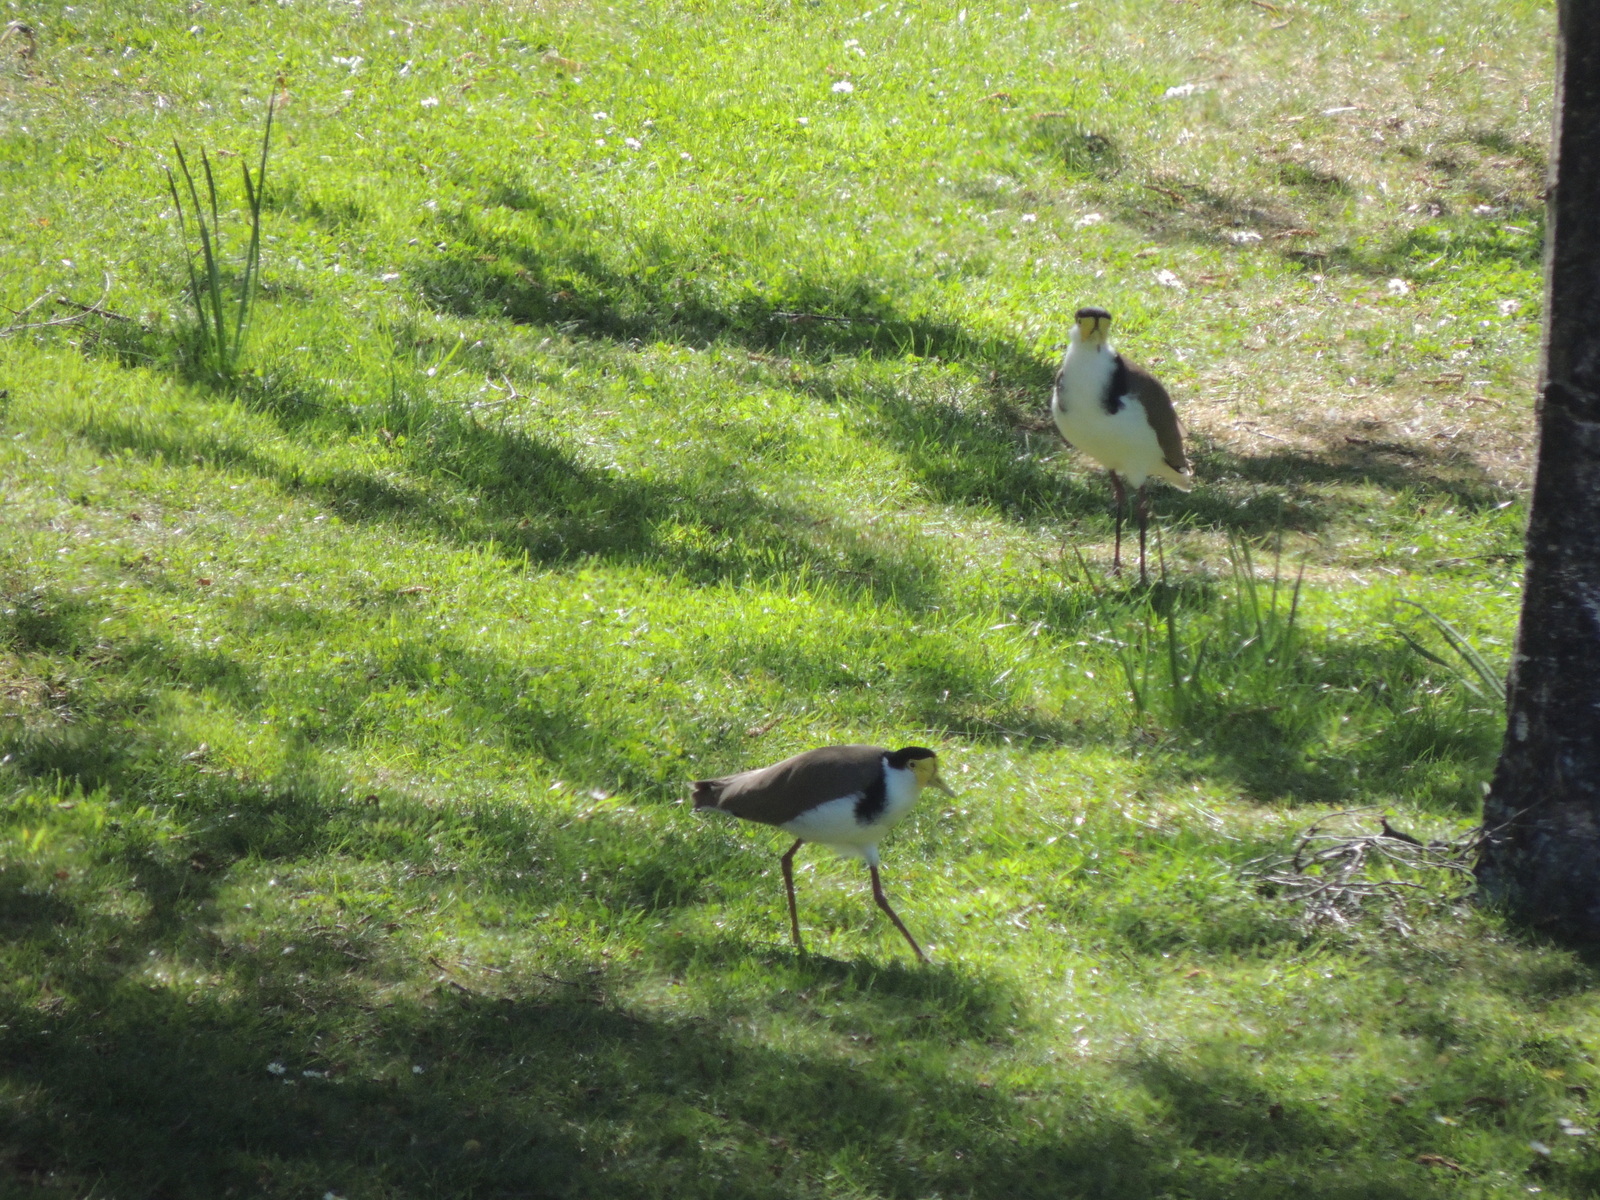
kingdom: Animalia
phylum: Chordata
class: Aves
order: Charadriiformes
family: Charadriidae
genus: Vanellus
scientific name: Vanellus miles
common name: Masked lapwing
